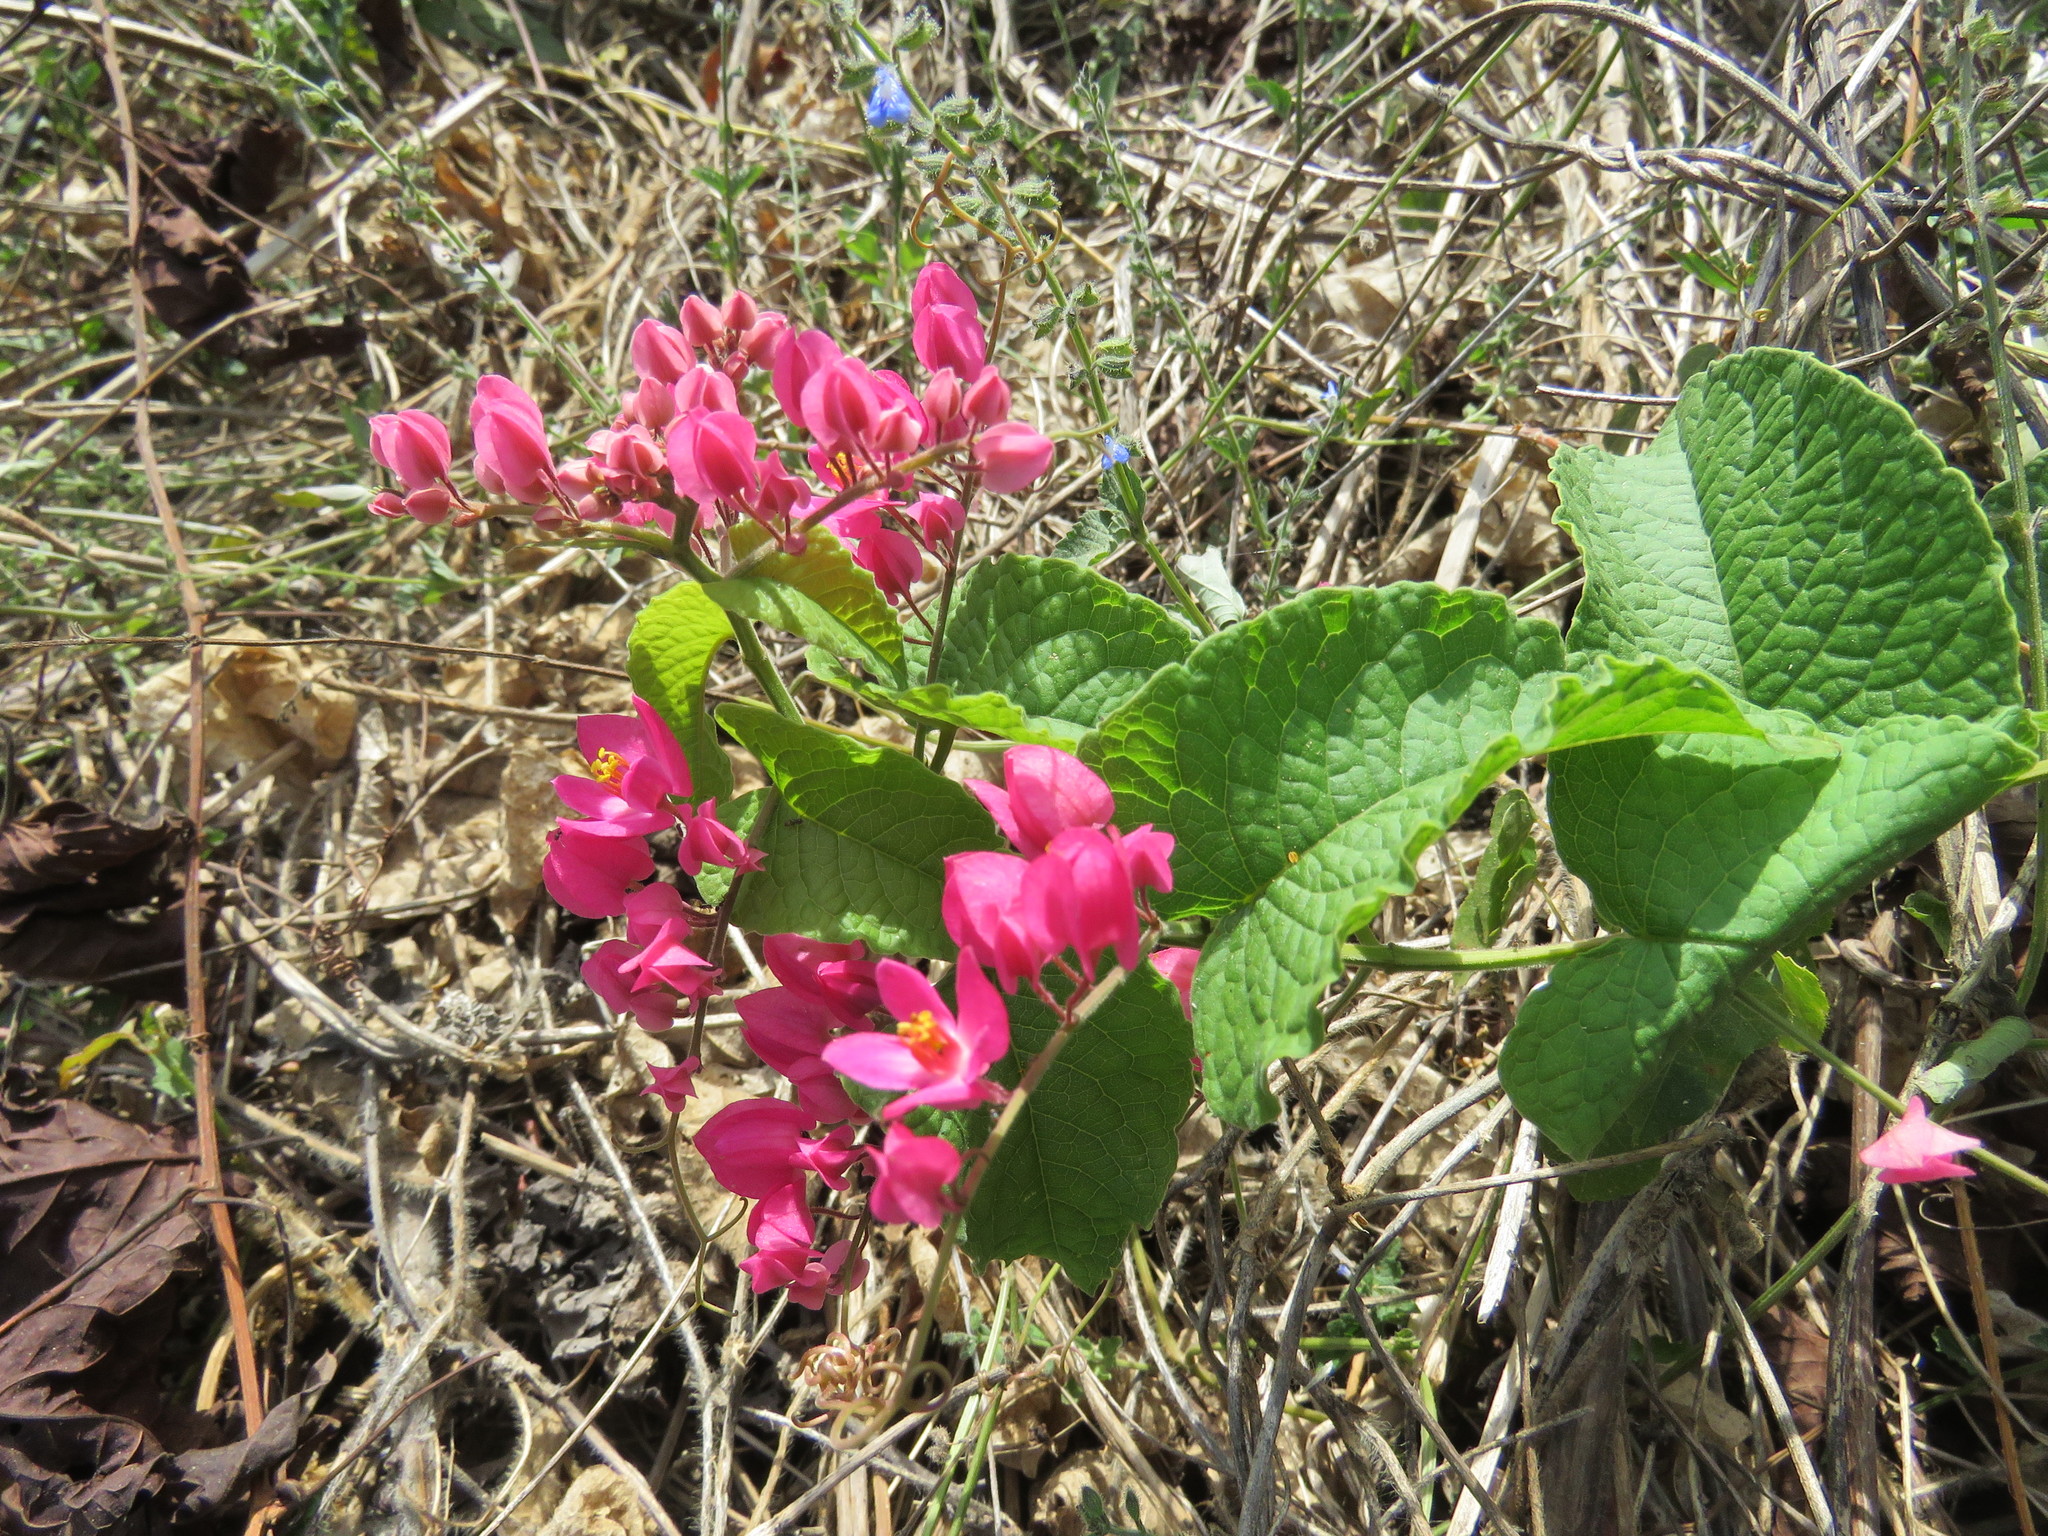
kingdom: Plantae
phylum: Tracheophyta
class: Magnoliopsida
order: Caryophyllales
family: Polygonaceae
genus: Antigonon
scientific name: Antigonon leptopus
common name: Coral vine
